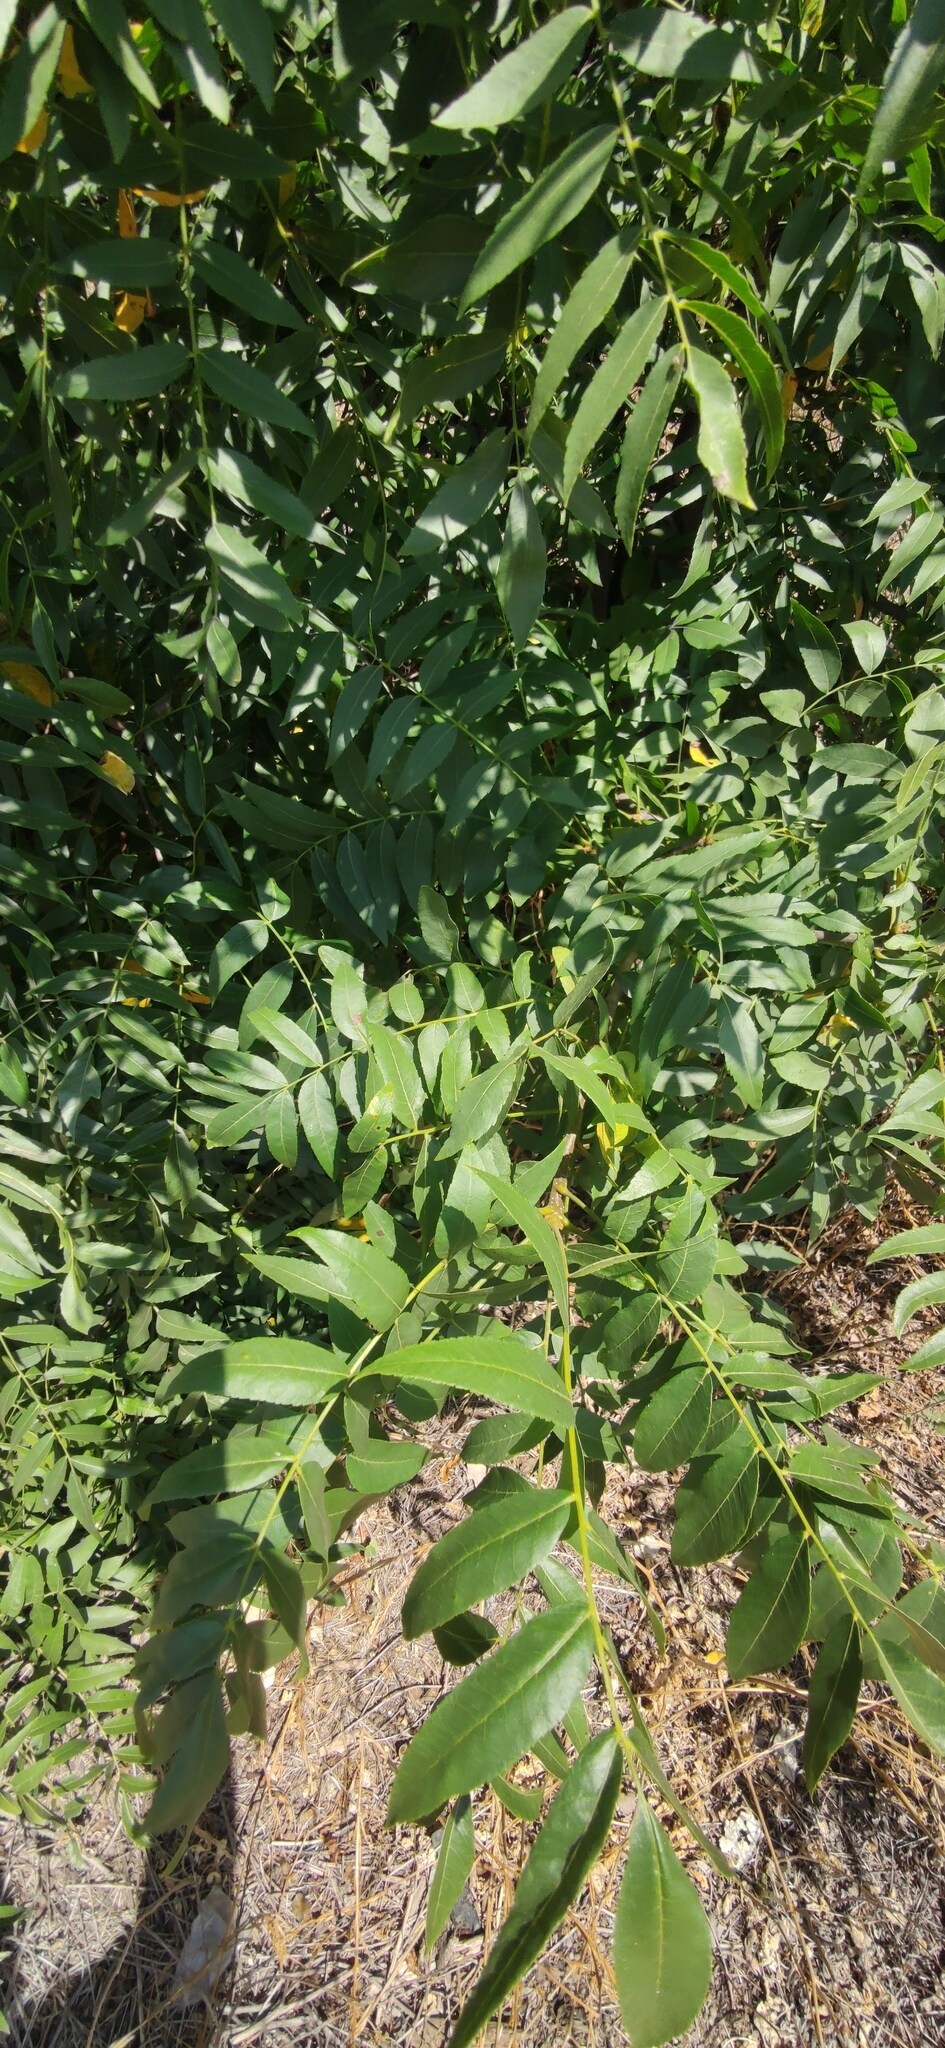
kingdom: Plantae
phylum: Tracheophyta
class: Magnoliopsida
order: Fagales
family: Juglandaceae
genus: Juglans
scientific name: Juglans californica
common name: Southern california black walnut
